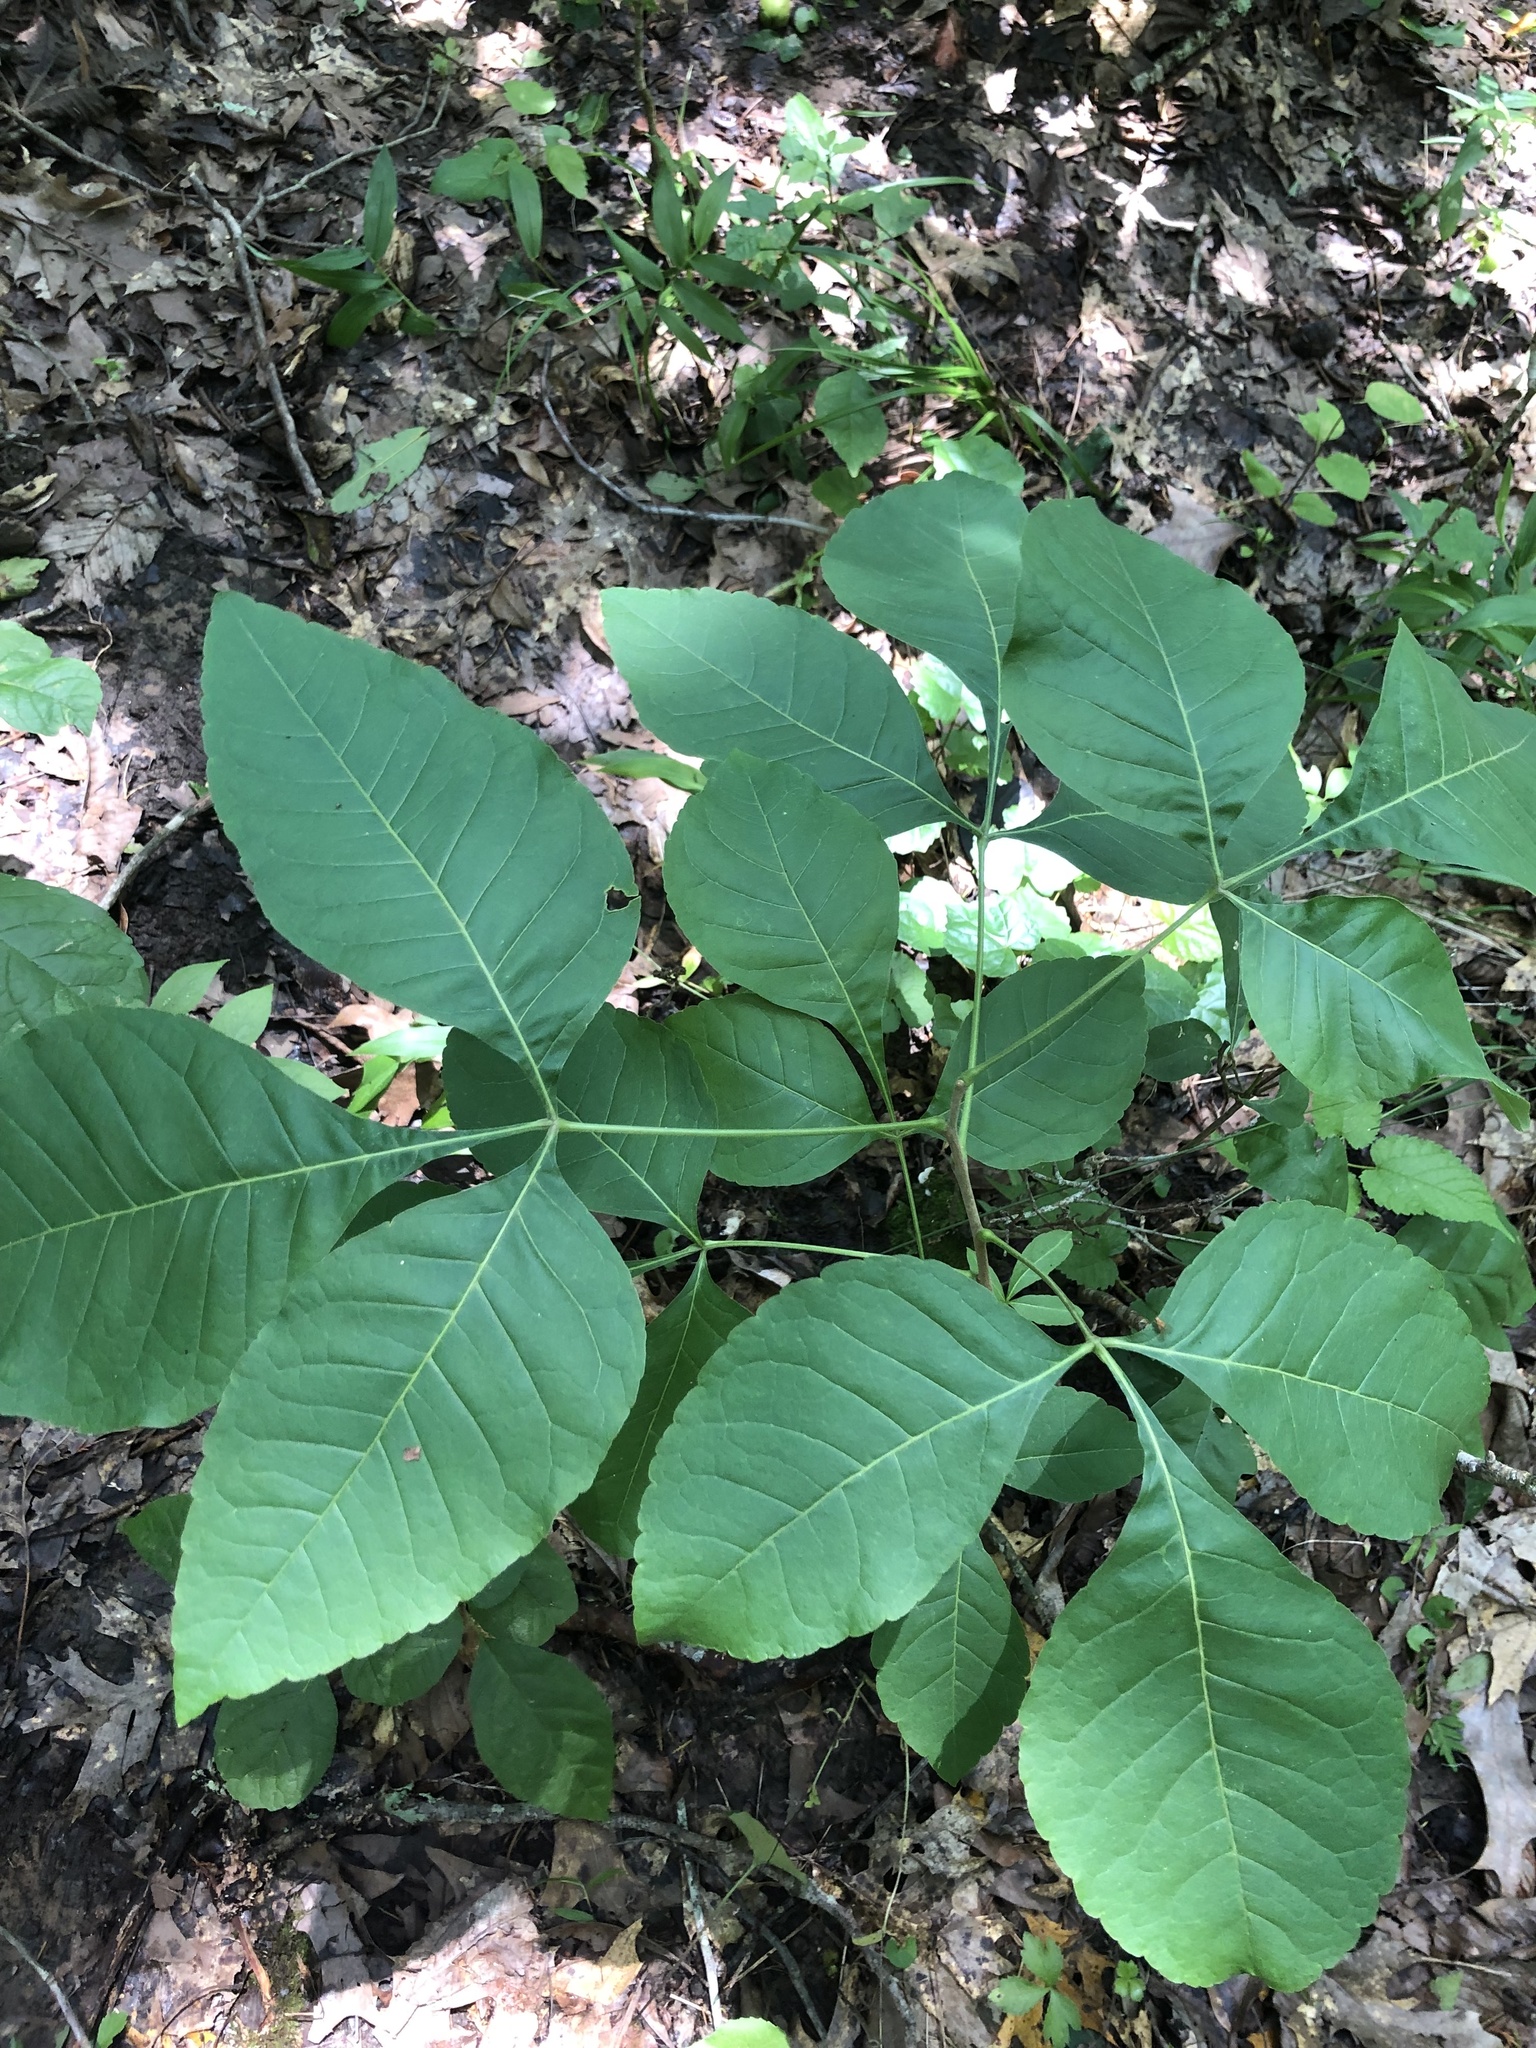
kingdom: Plantae
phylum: Tracheophyta
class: Magnoliopsida
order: Sapindales
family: Rutaceae
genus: Ptelea
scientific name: Ptelea trifoliata
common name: Common hop-tree
